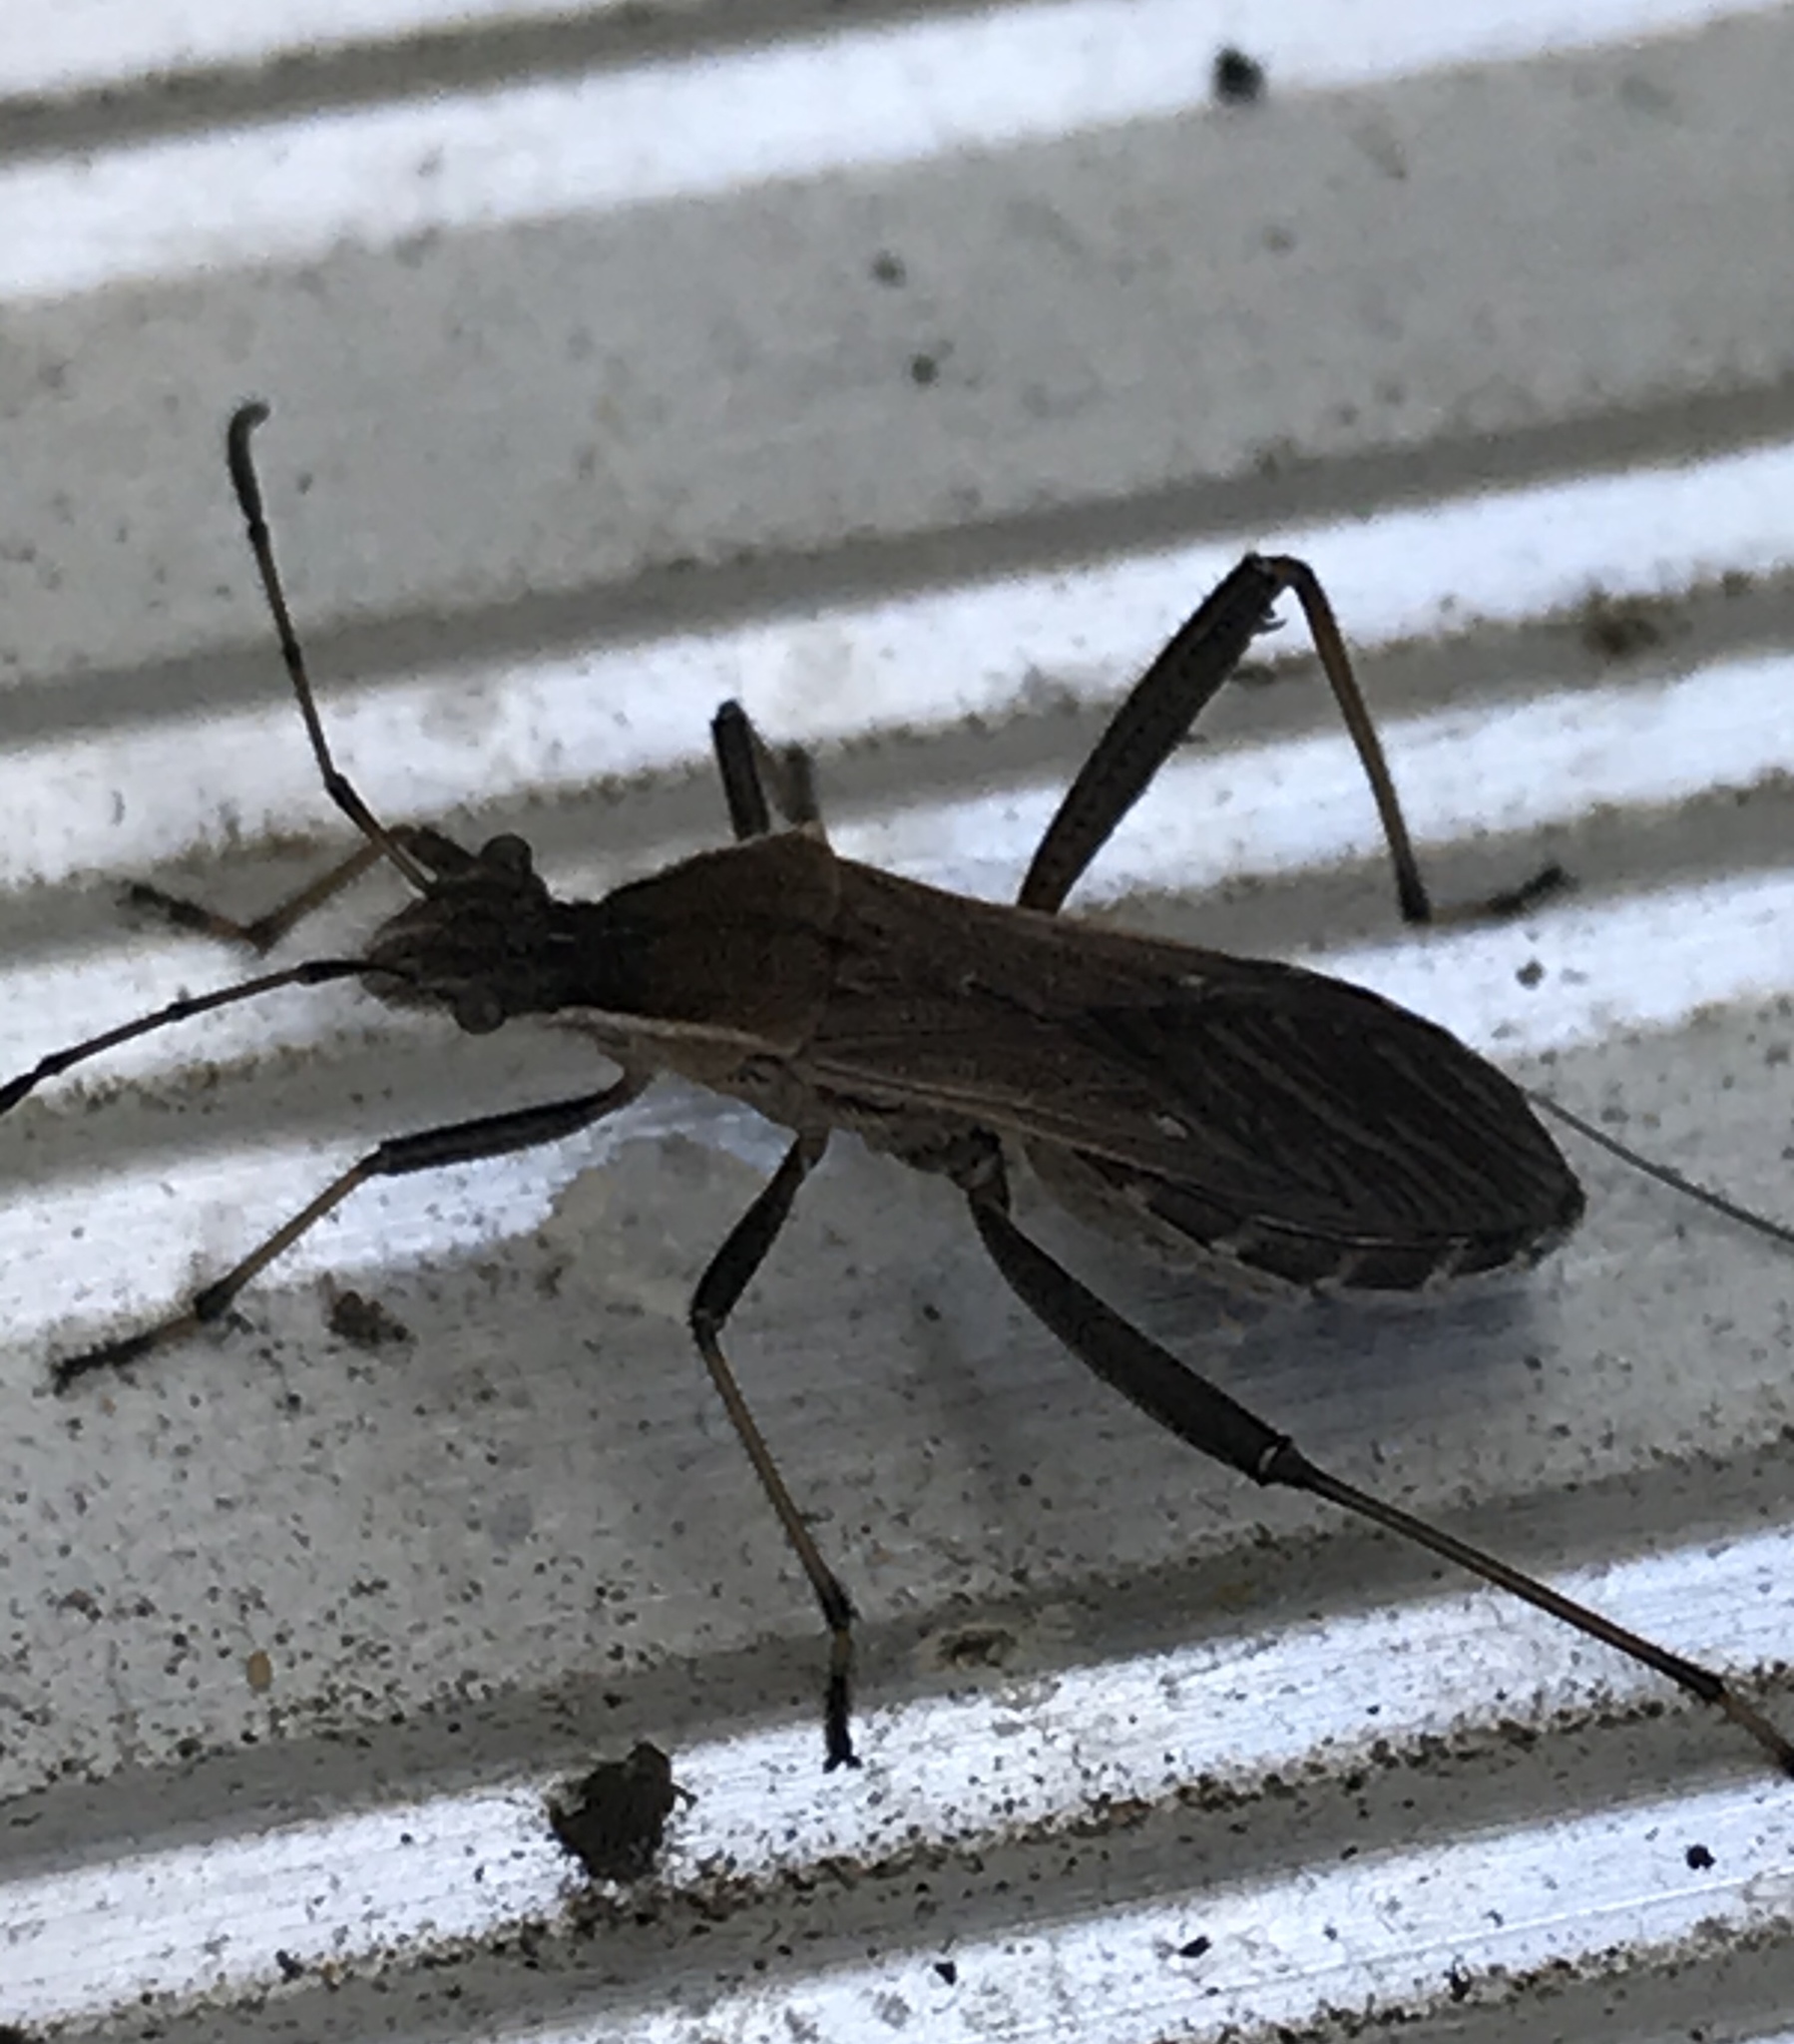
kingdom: Animalia
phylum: Arthropoda
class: Insecta
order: Hemiptera
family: Alydidae
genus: Alydus
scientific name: Alydus pilosulus
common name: Broad-headed bug
